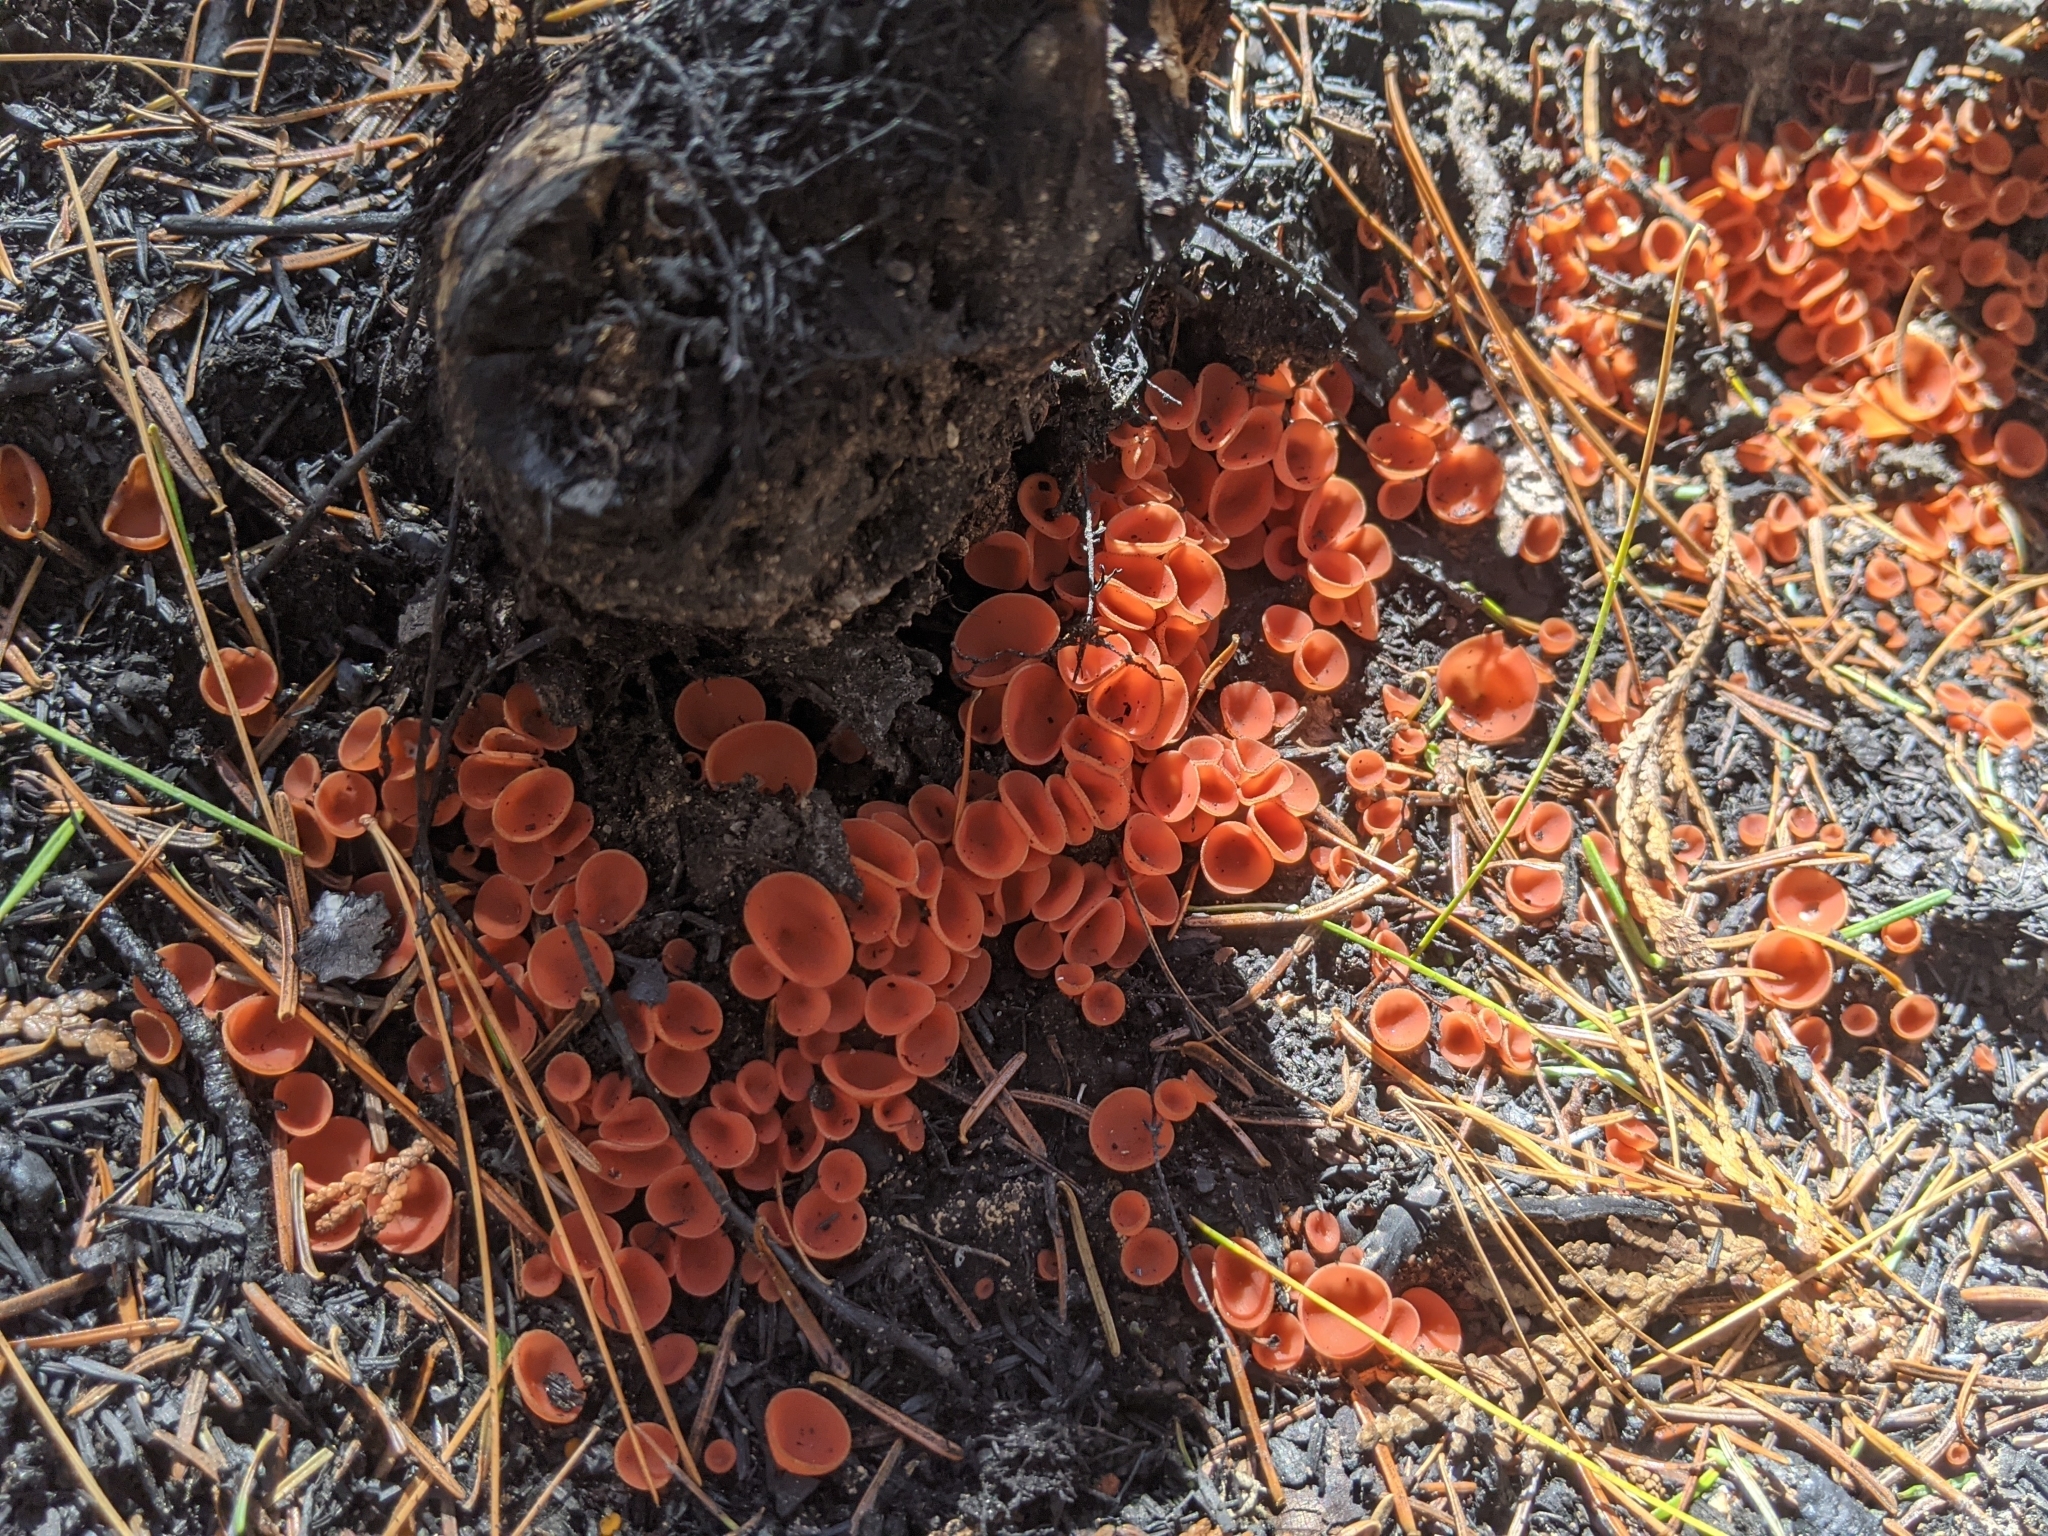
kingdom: Fungi
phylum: Ascomycota
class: Pezizomycetes
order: Pezizales
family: Pyronemataceae
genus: Pyropyxis
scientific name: Pyropyxis rubra
